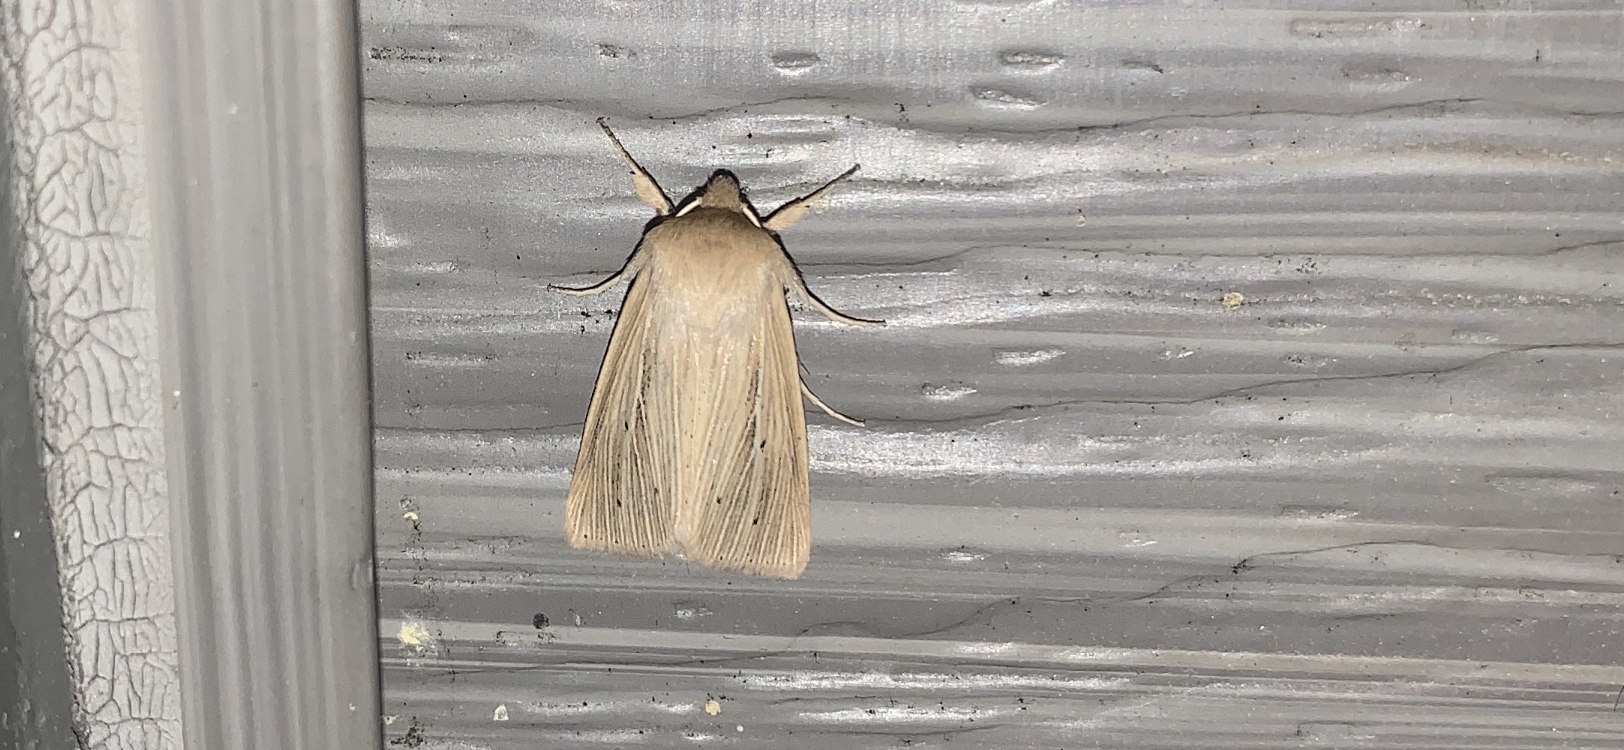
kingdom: Animalia
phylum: Arthropoda
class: Insecta
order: Lepidoptera
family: Noctuidae
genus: Mythimna
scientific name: Mythimna oxygala
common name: Lesser wainscot
